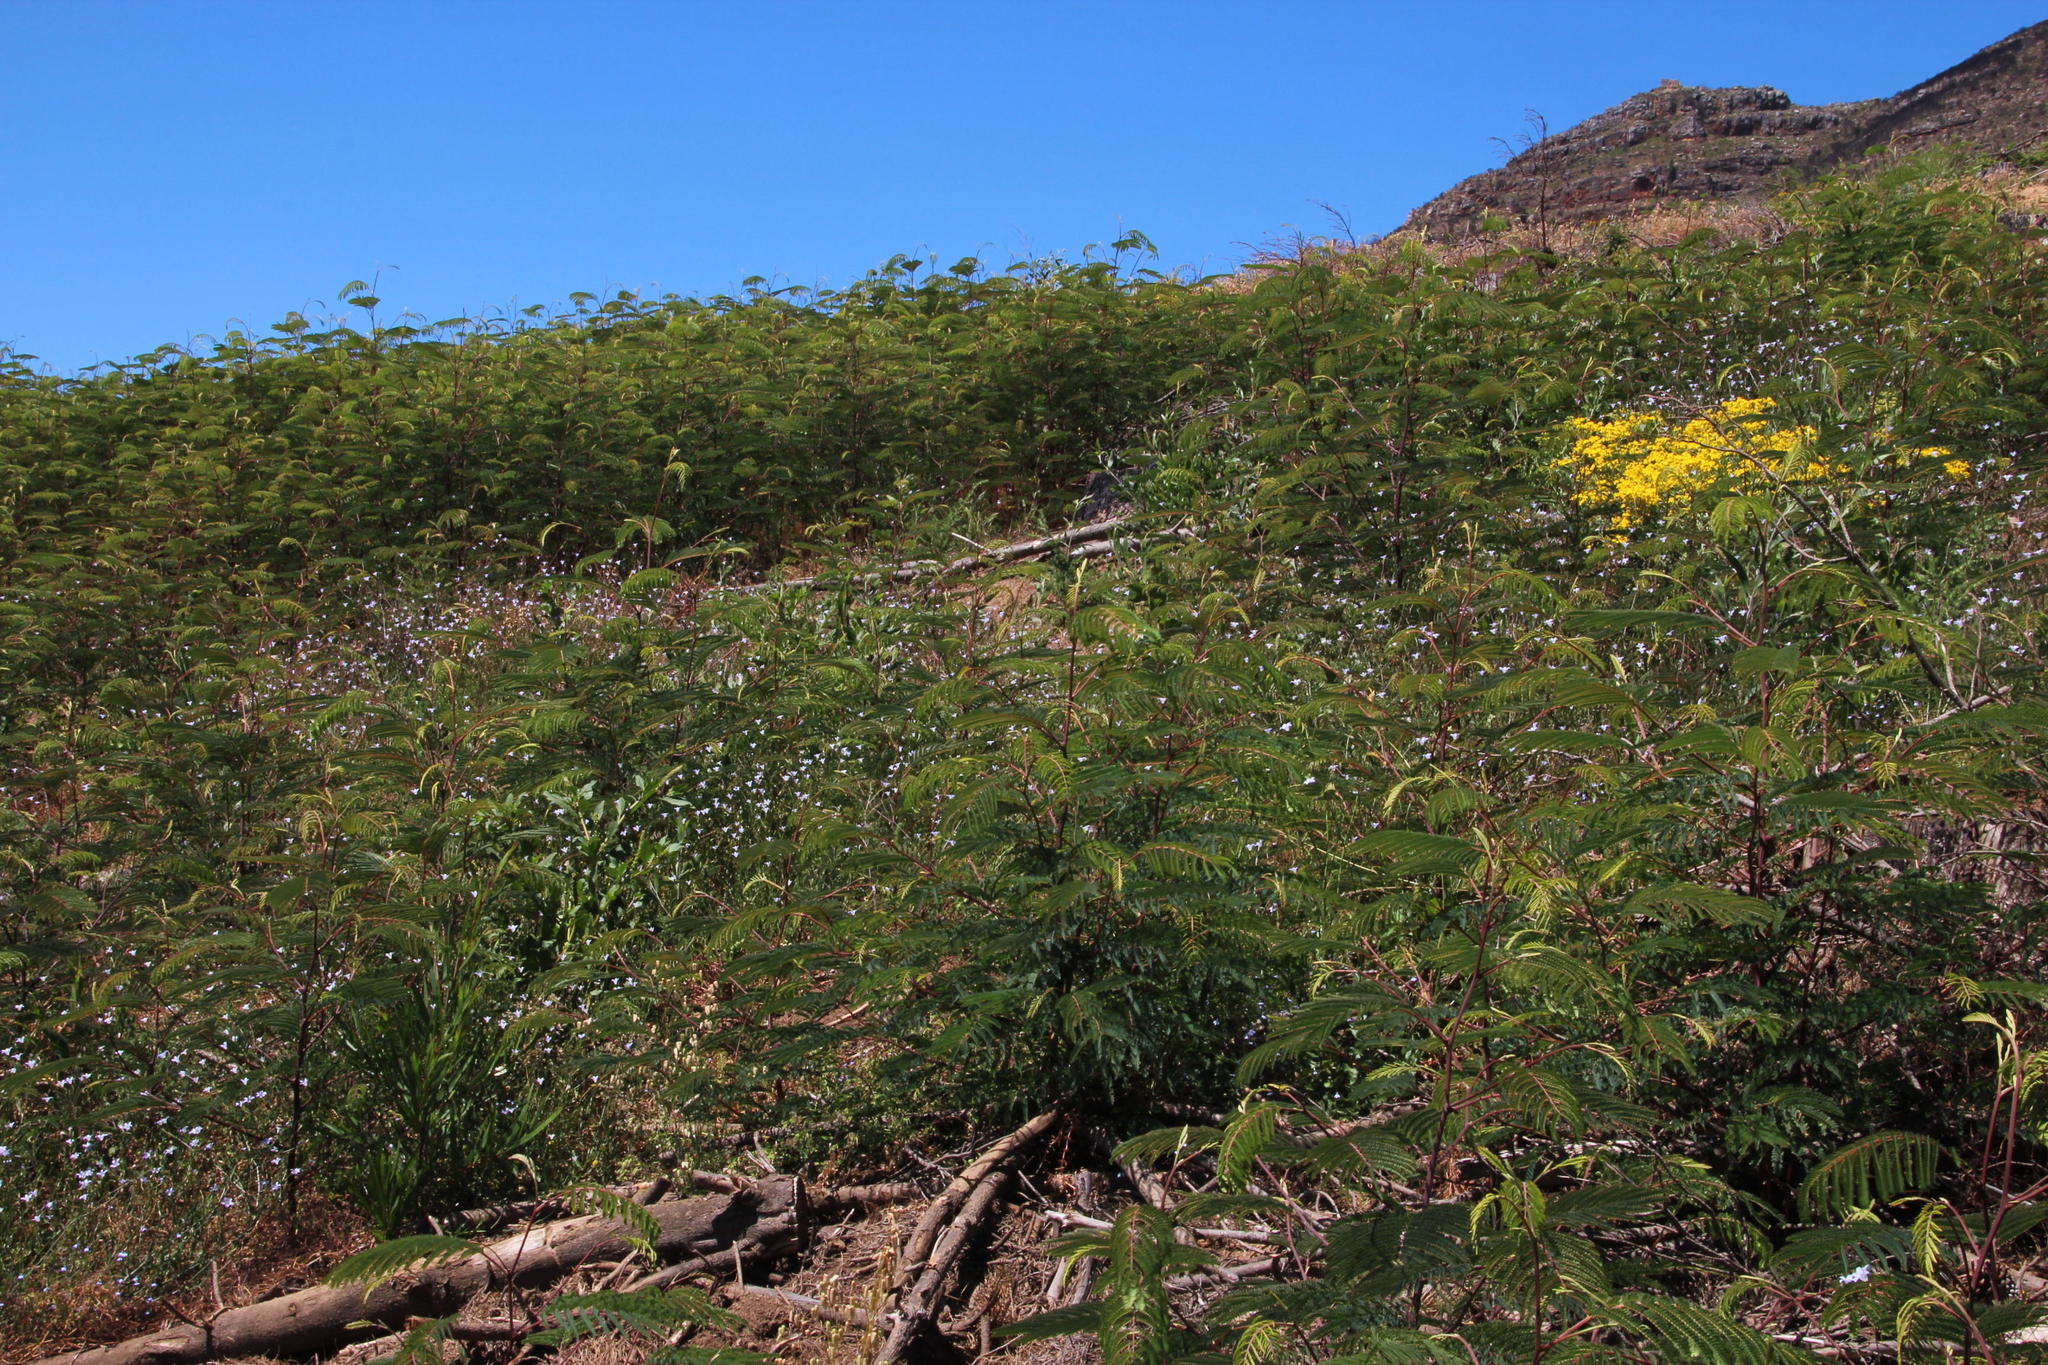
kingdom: Plantae
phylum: Tracheophyta
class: Magnoliopsida
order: Fabales
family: Fabaceae
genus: Paraserianthes
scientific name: Paraserianthes lophantha
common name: Plume albizia
